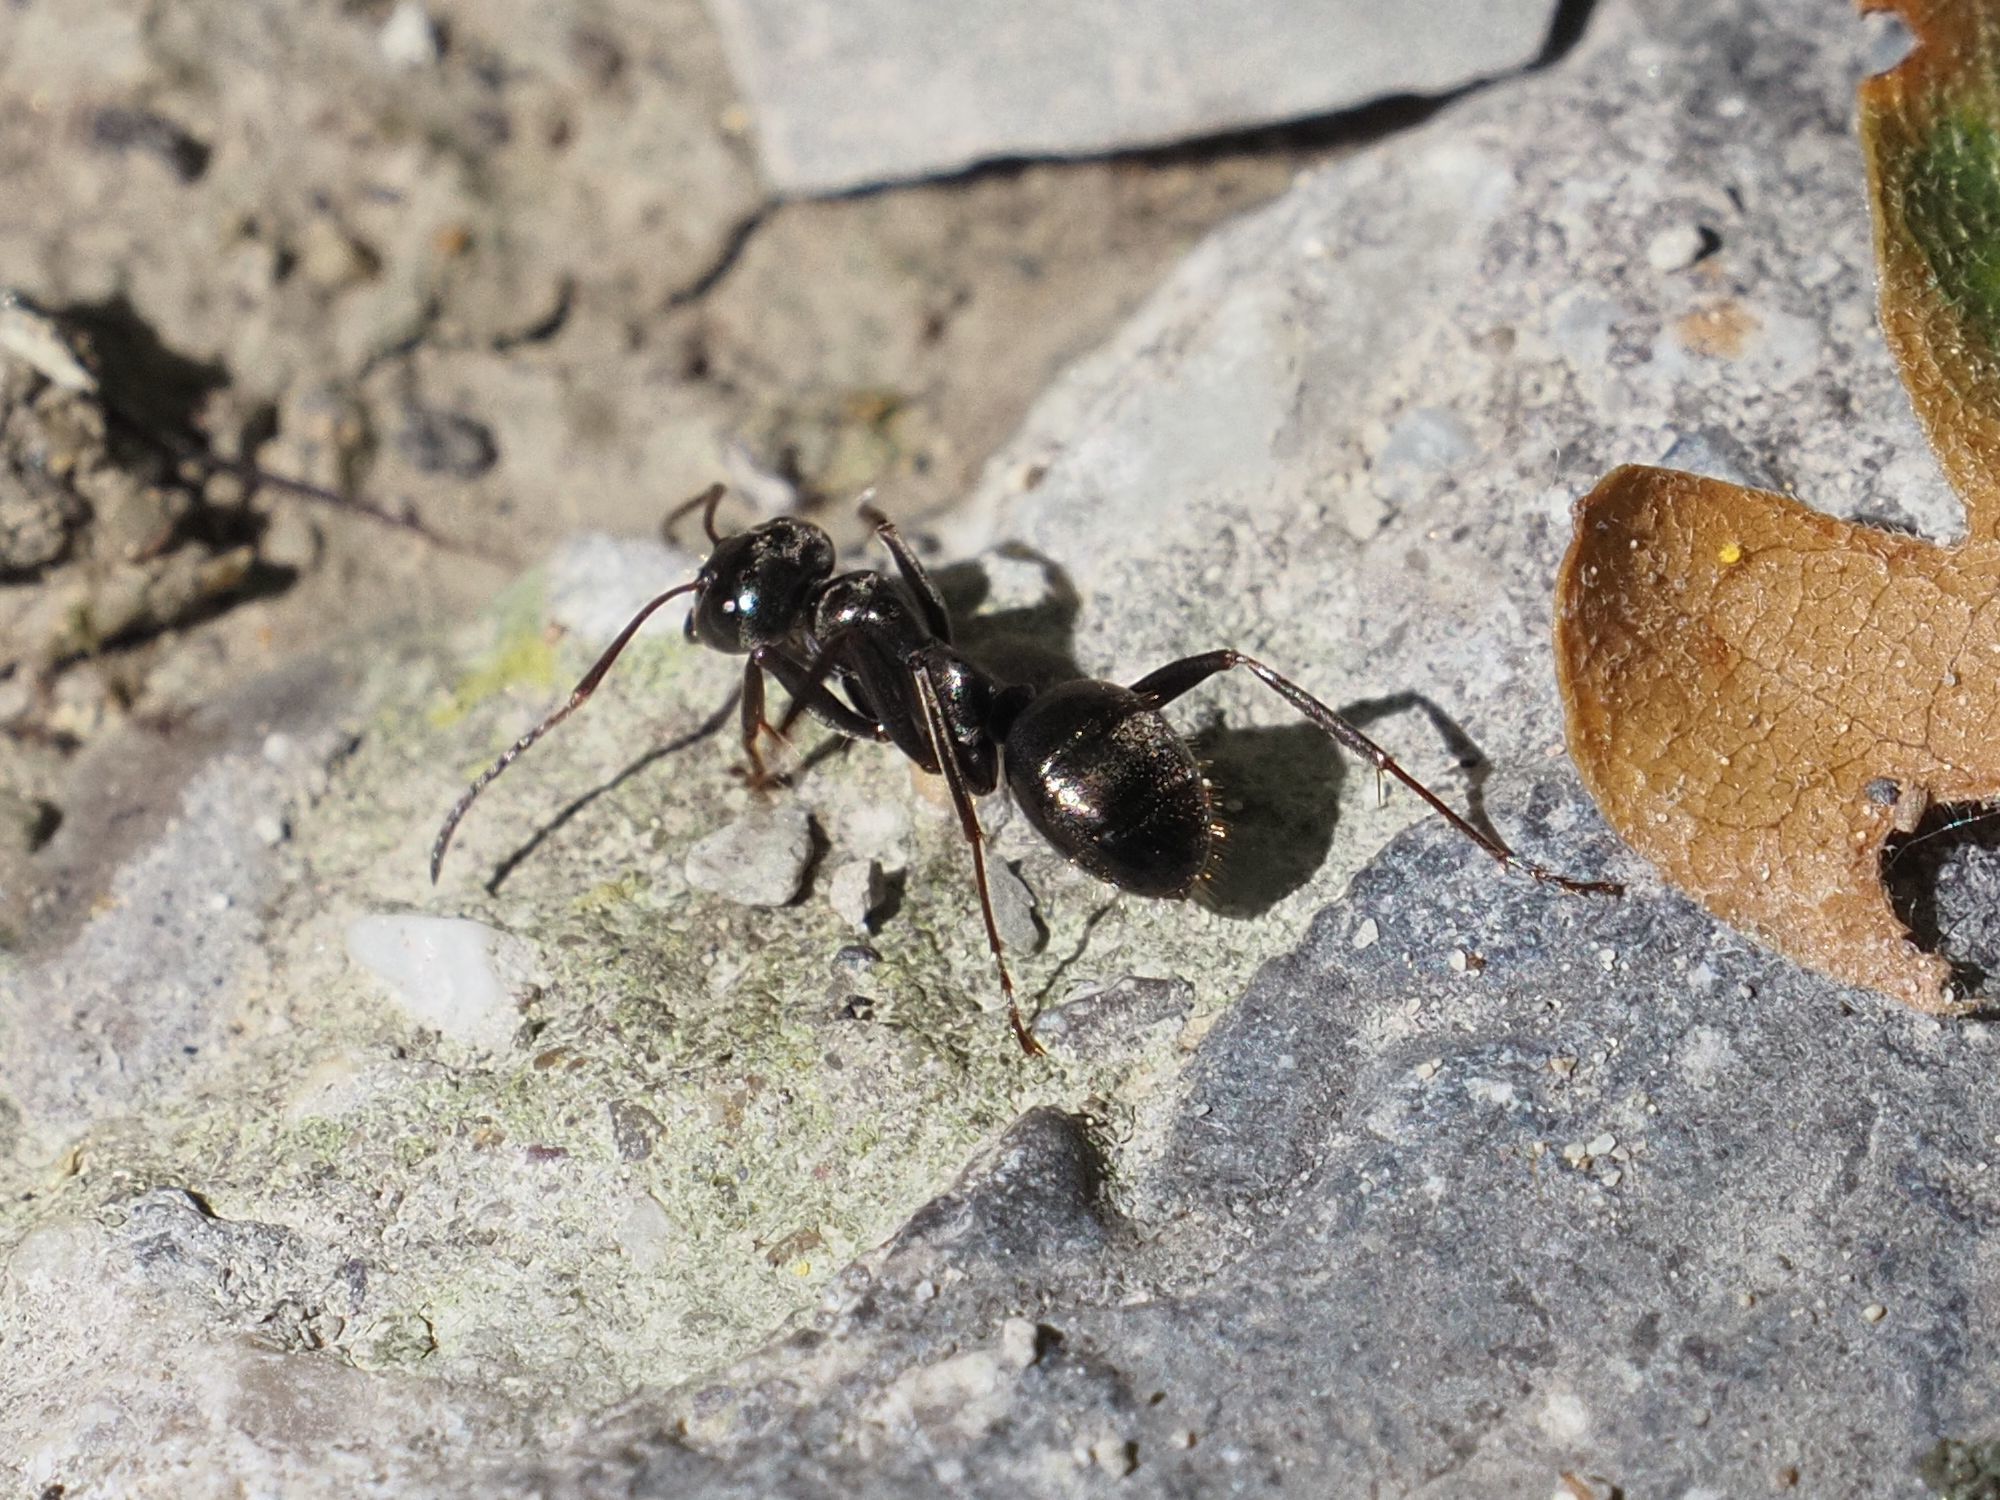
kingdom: Animalia
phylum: Arthropoda
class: Insecta
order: Hymenoptera
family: Formicidae
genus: Formica
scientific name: Formica gagates
